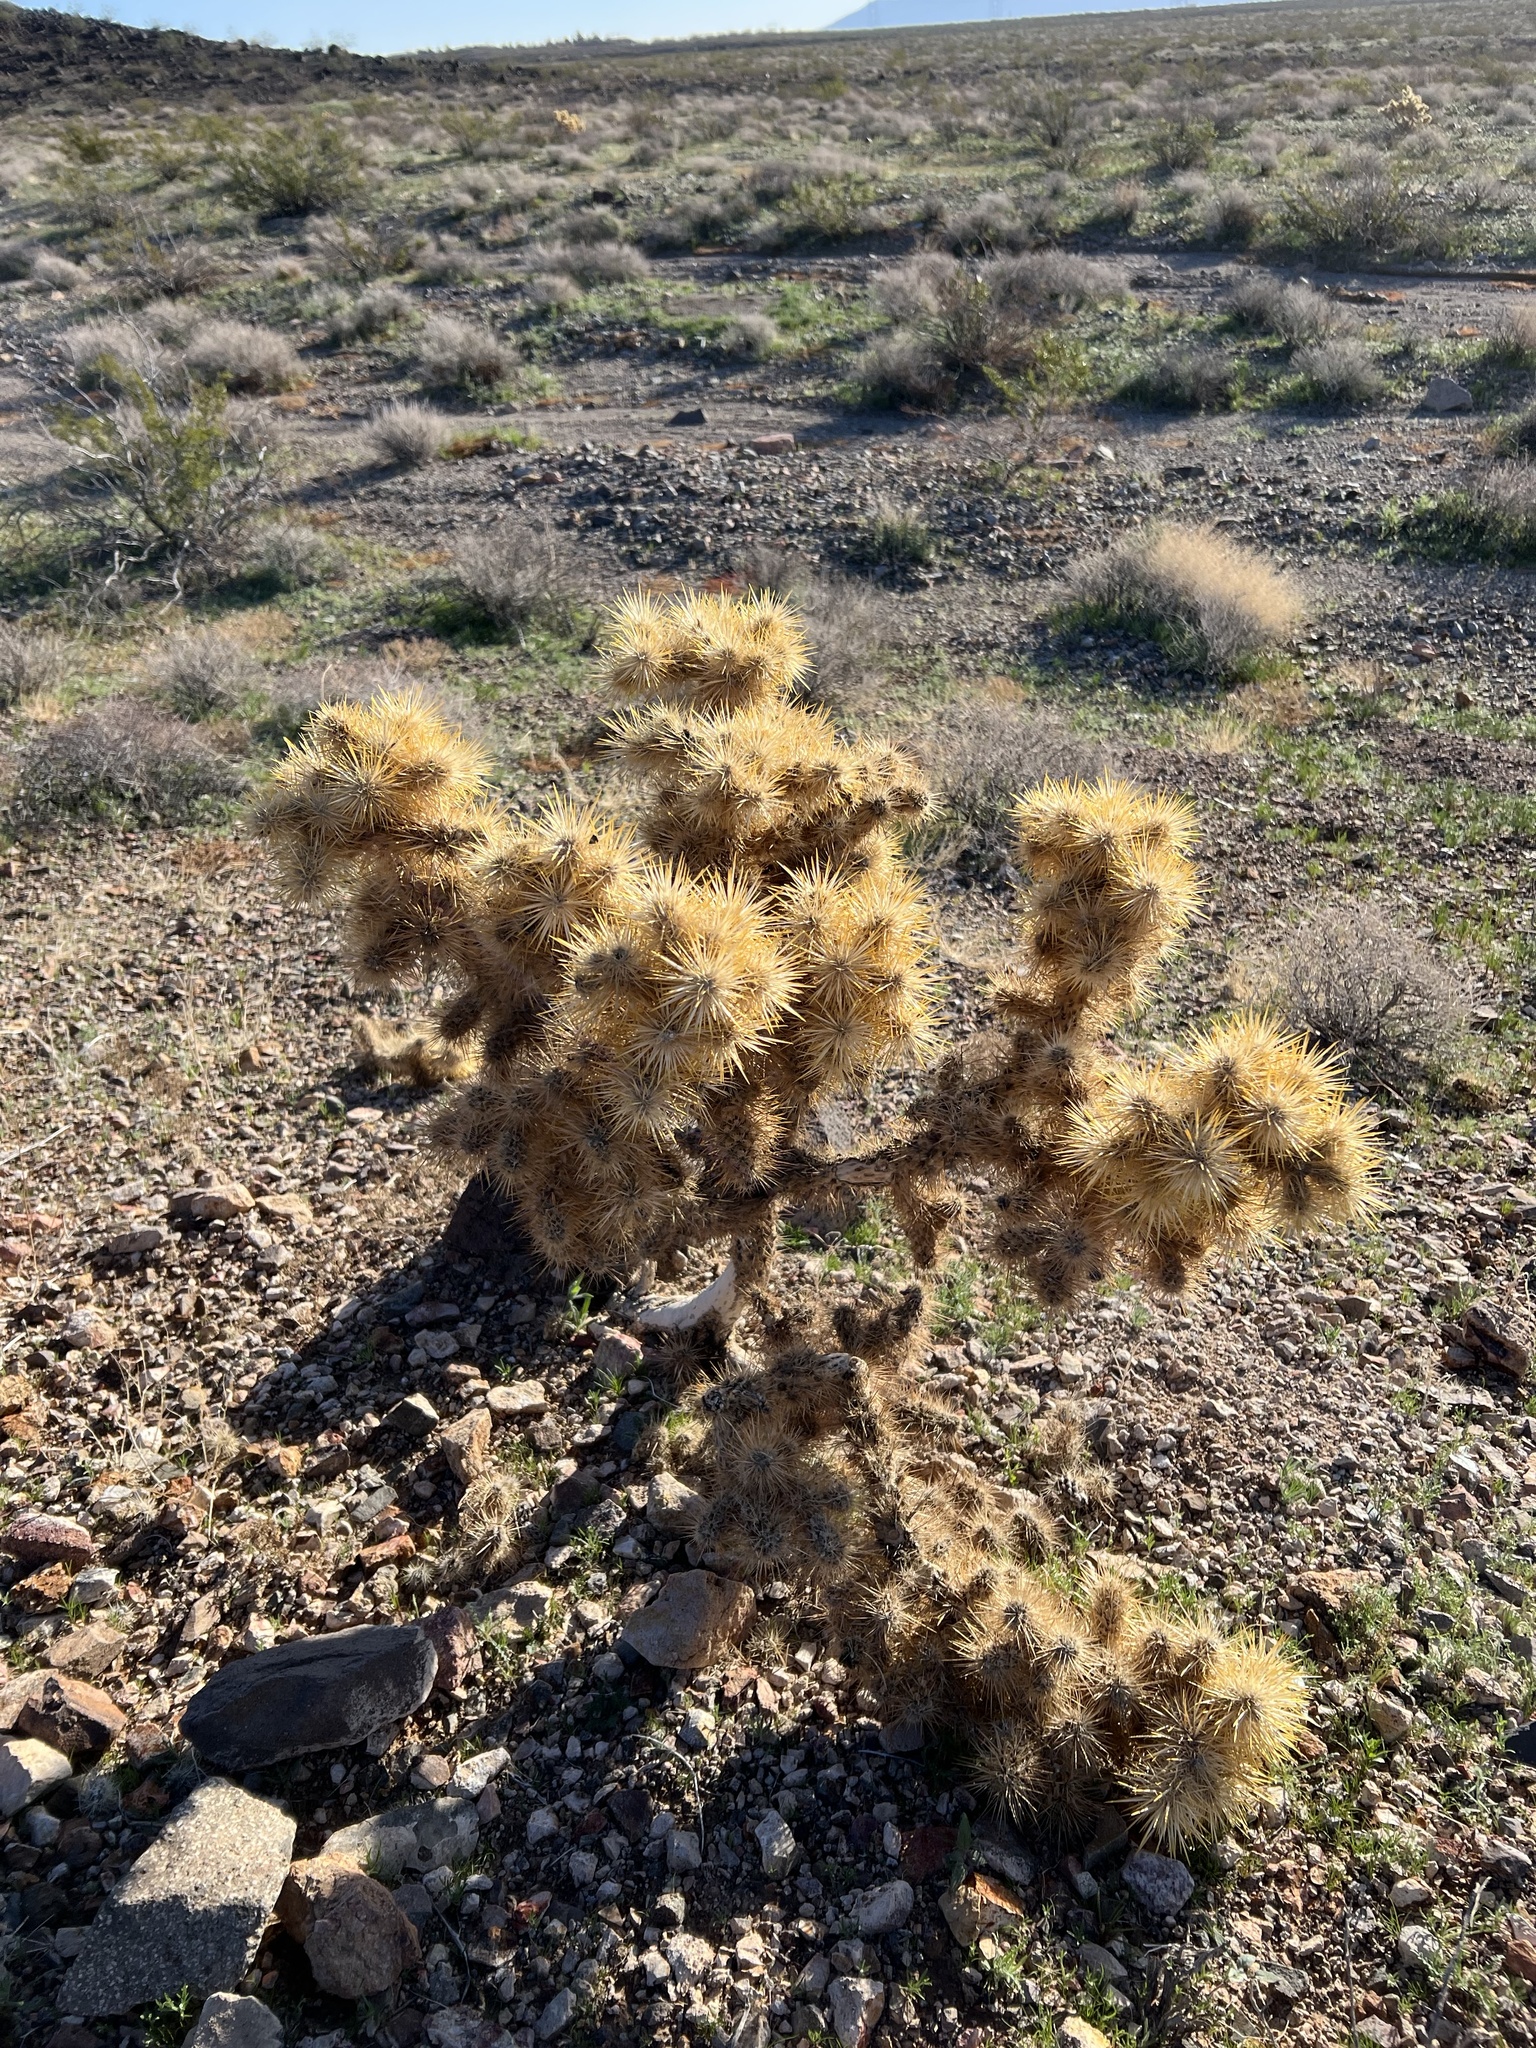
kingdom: Plantae
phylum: Tracheophyta
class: Magnoliopsida
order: Caryophyllales
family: Cactaceae
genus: Cylindropuntia
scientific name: Cylindropuntia echinocarpa
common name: Ground cholla
